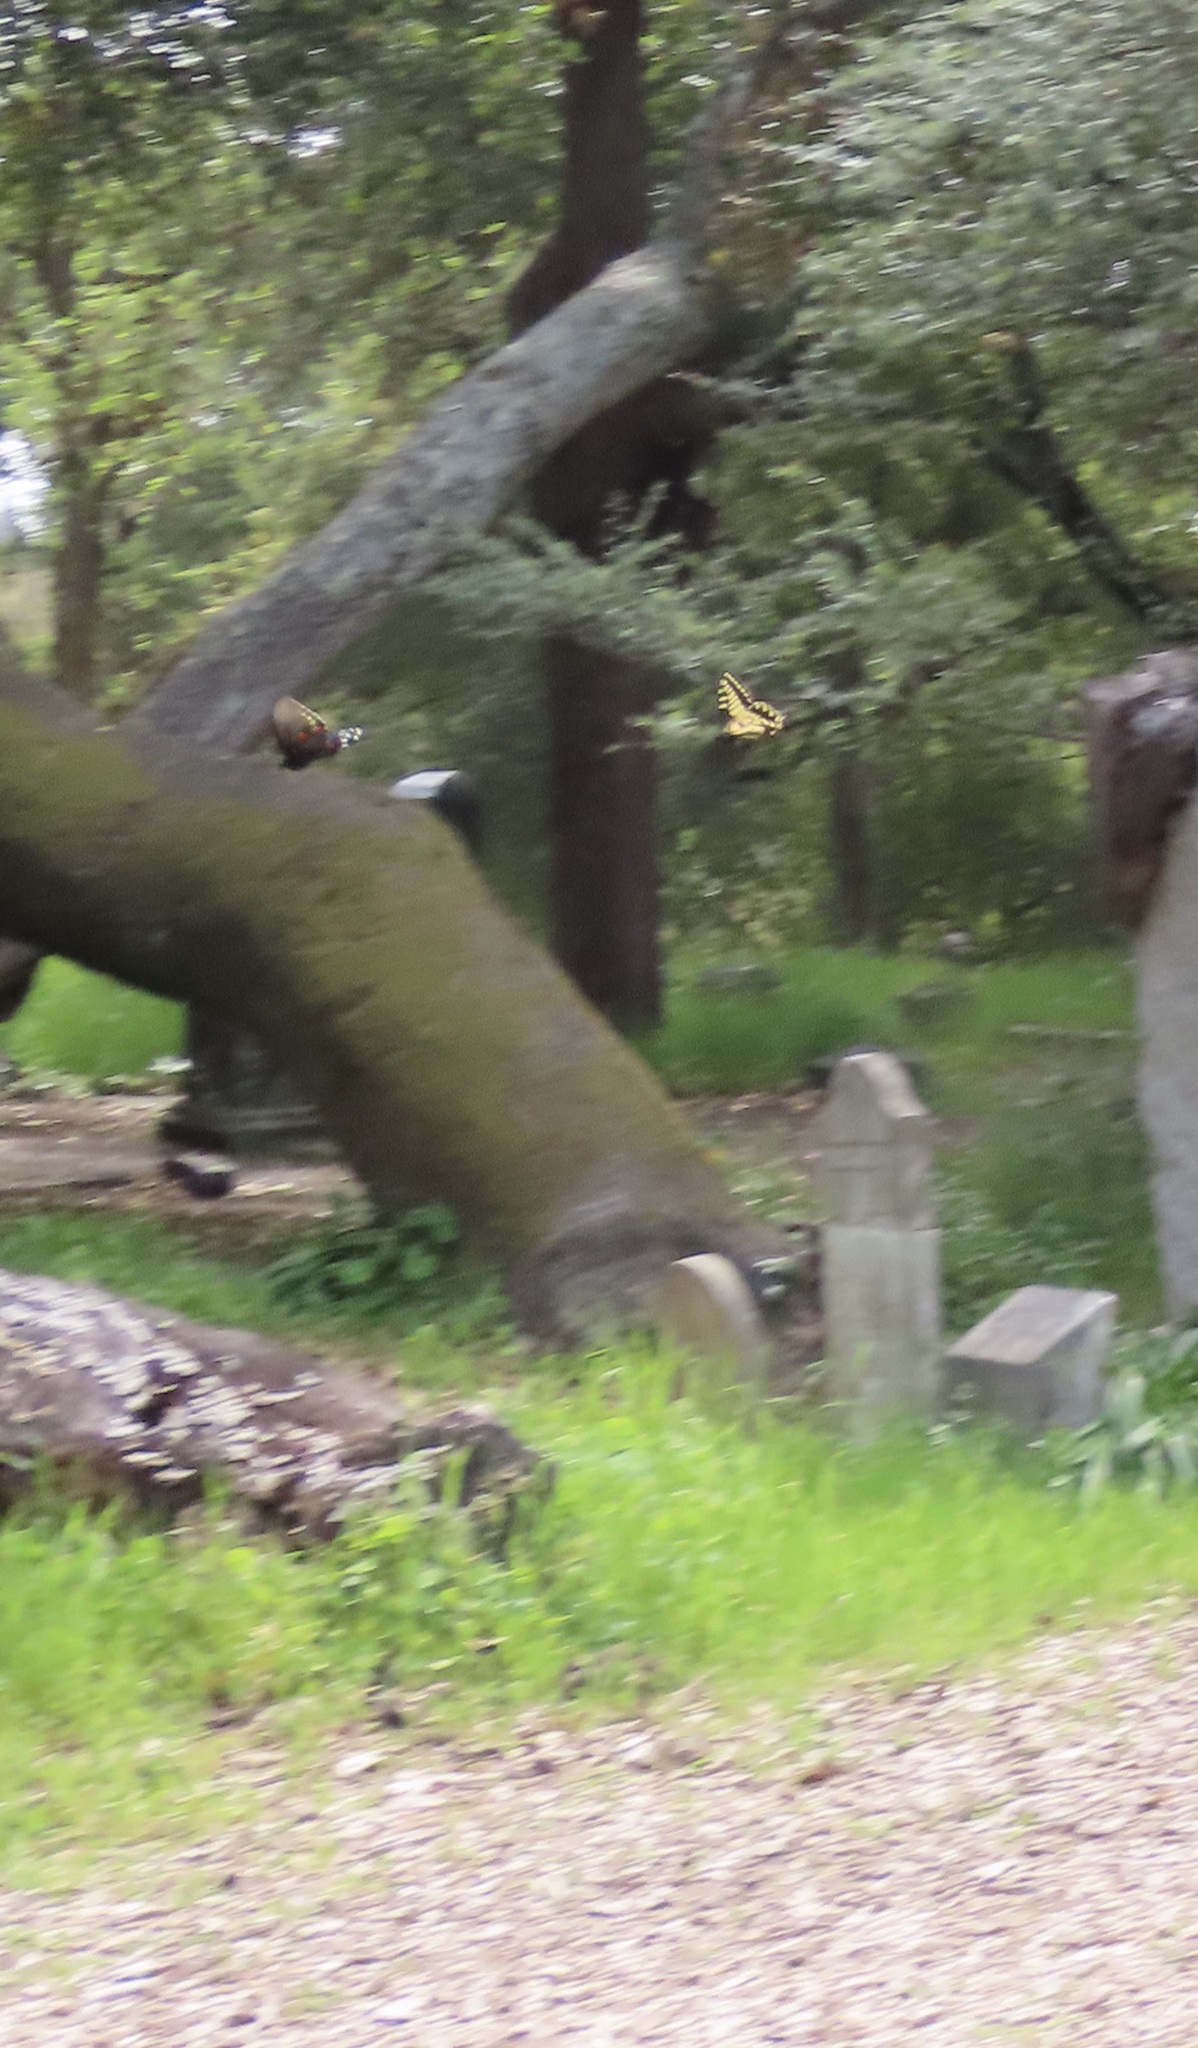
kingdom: Animalia
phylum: Arthropoda
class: Insecta
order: Lepidoptera
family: Papilionidae
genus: Battus
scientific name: Battus philenor
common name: Pipevine swallowtail
